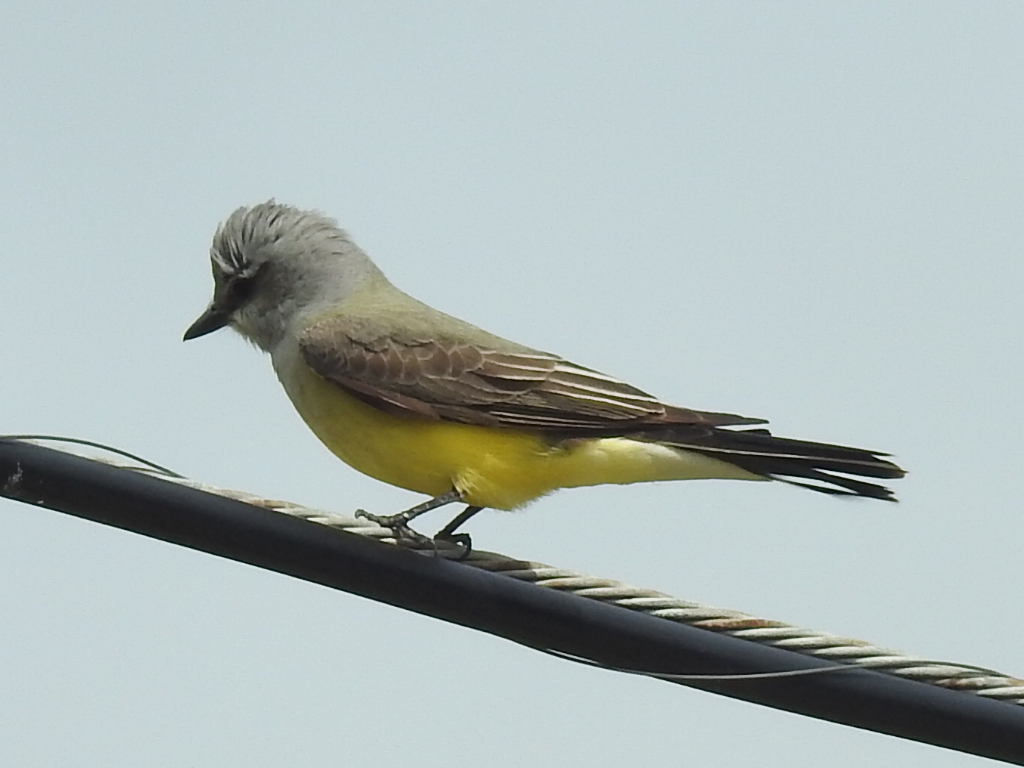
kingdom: Animalia
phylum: Chordata
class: Aves
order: Passeriformes
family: Tyrannidae
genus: Tyrannus
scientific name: Tyrannus verticalis
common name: Western kingbird
